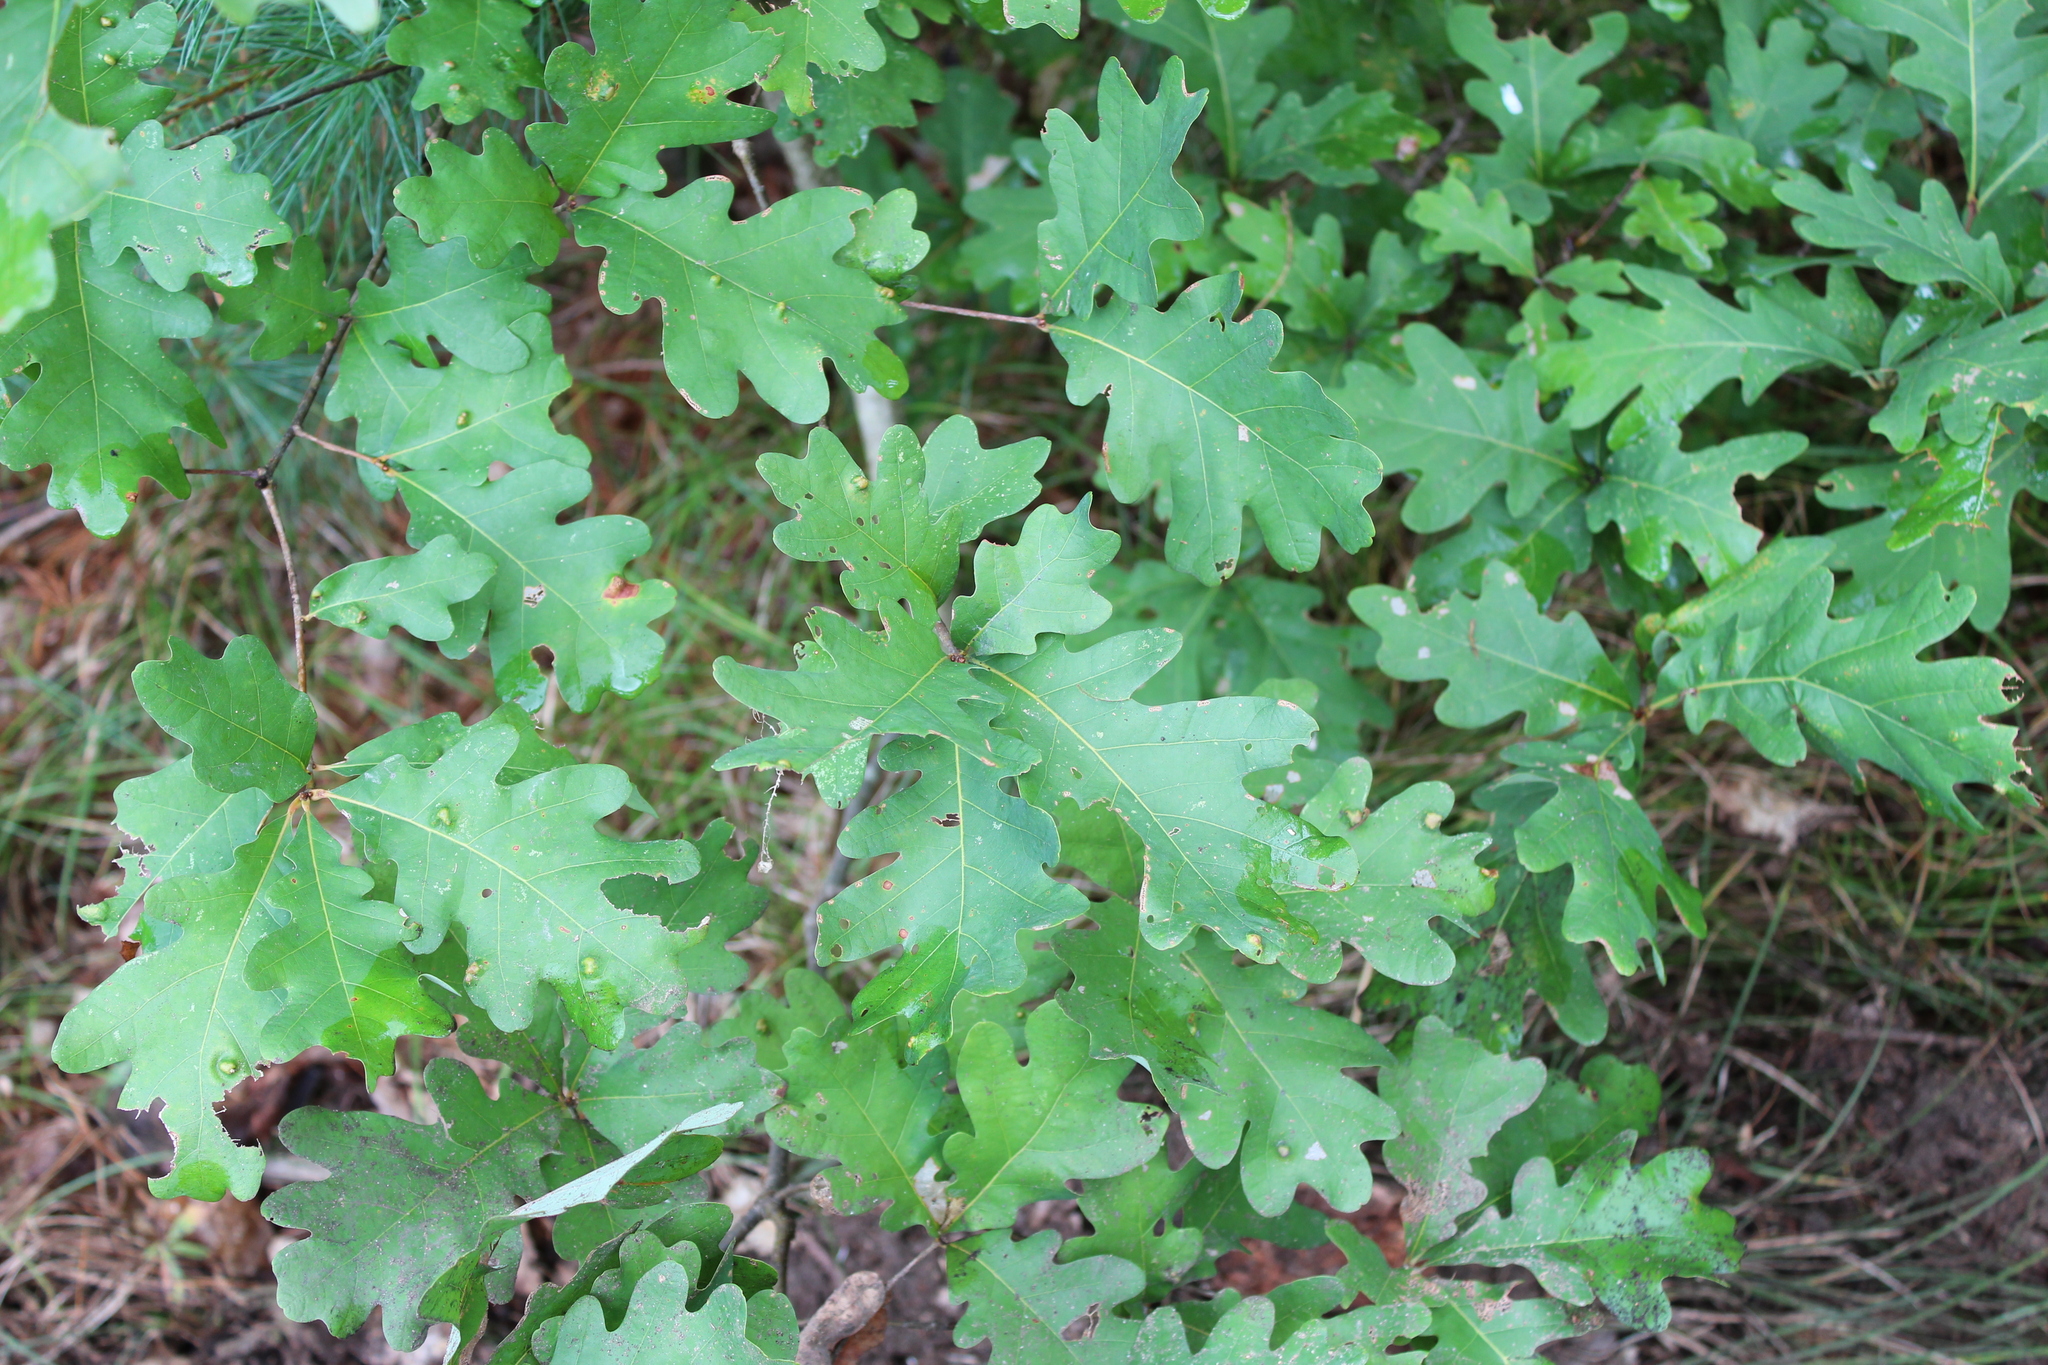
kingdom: Plantae
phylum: Tracheophyta
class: Magnoliopsida
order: Fagales
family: Fagaceae
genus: Quercus
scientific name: Quercus alba
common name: White oak
